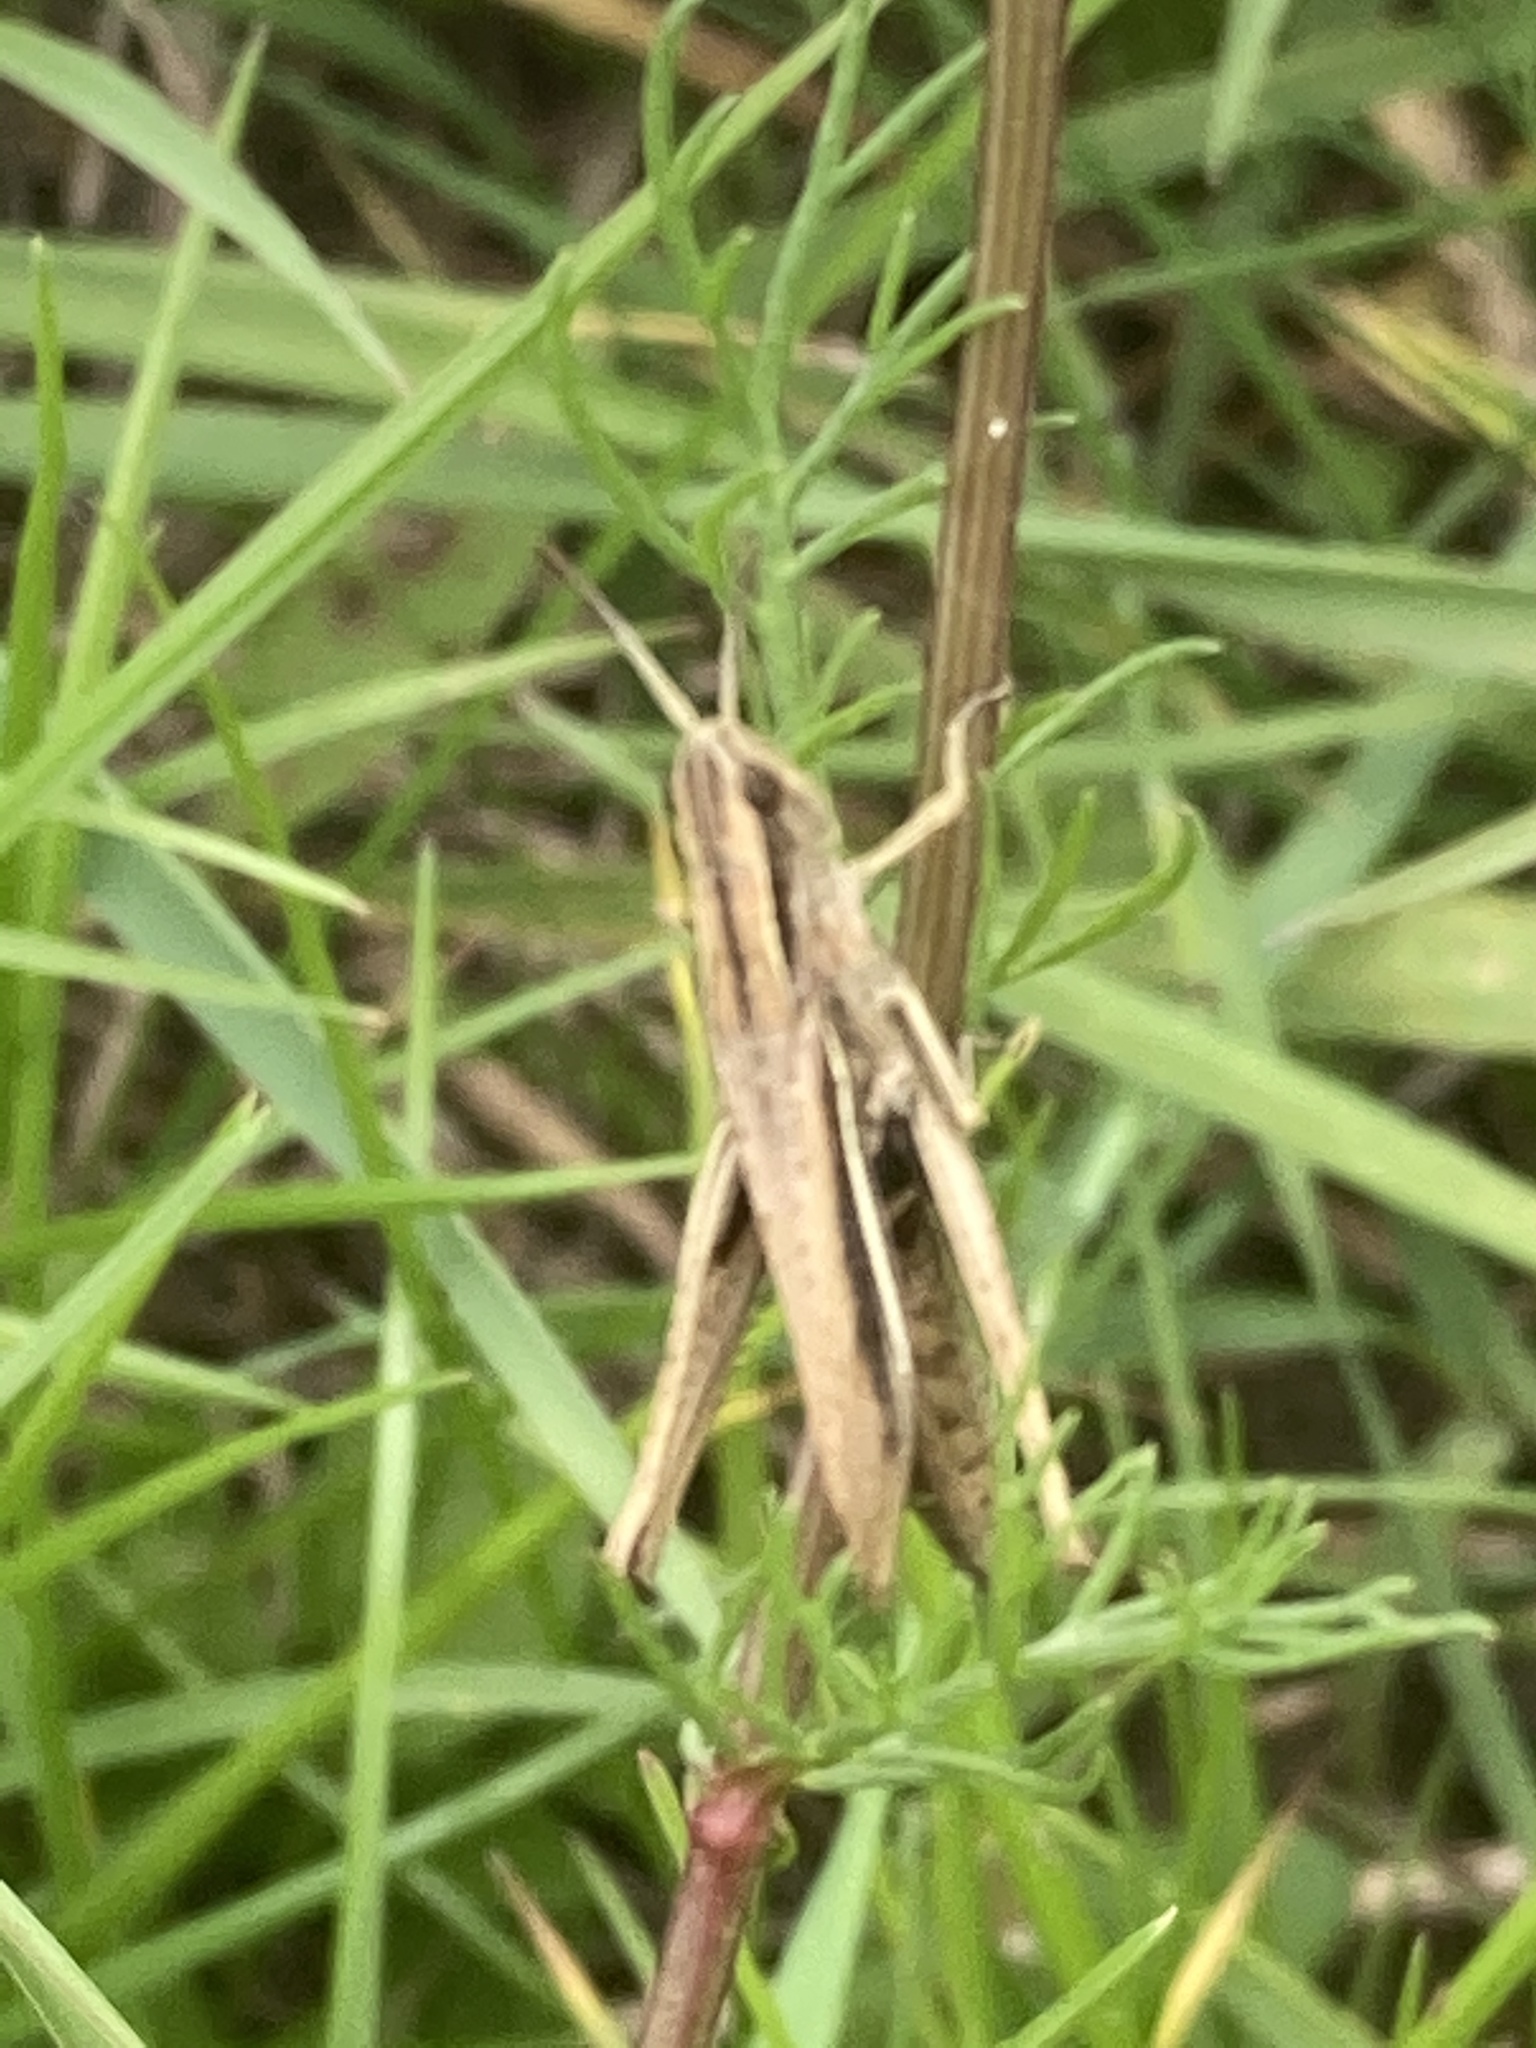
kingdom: Animalia
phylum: Arthropoda
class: Insecta
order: Orthoptera
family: Acrididae
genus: Chorthippus
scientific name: Chorthippus albomarginatus
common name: Lesser marsh grasshopper
